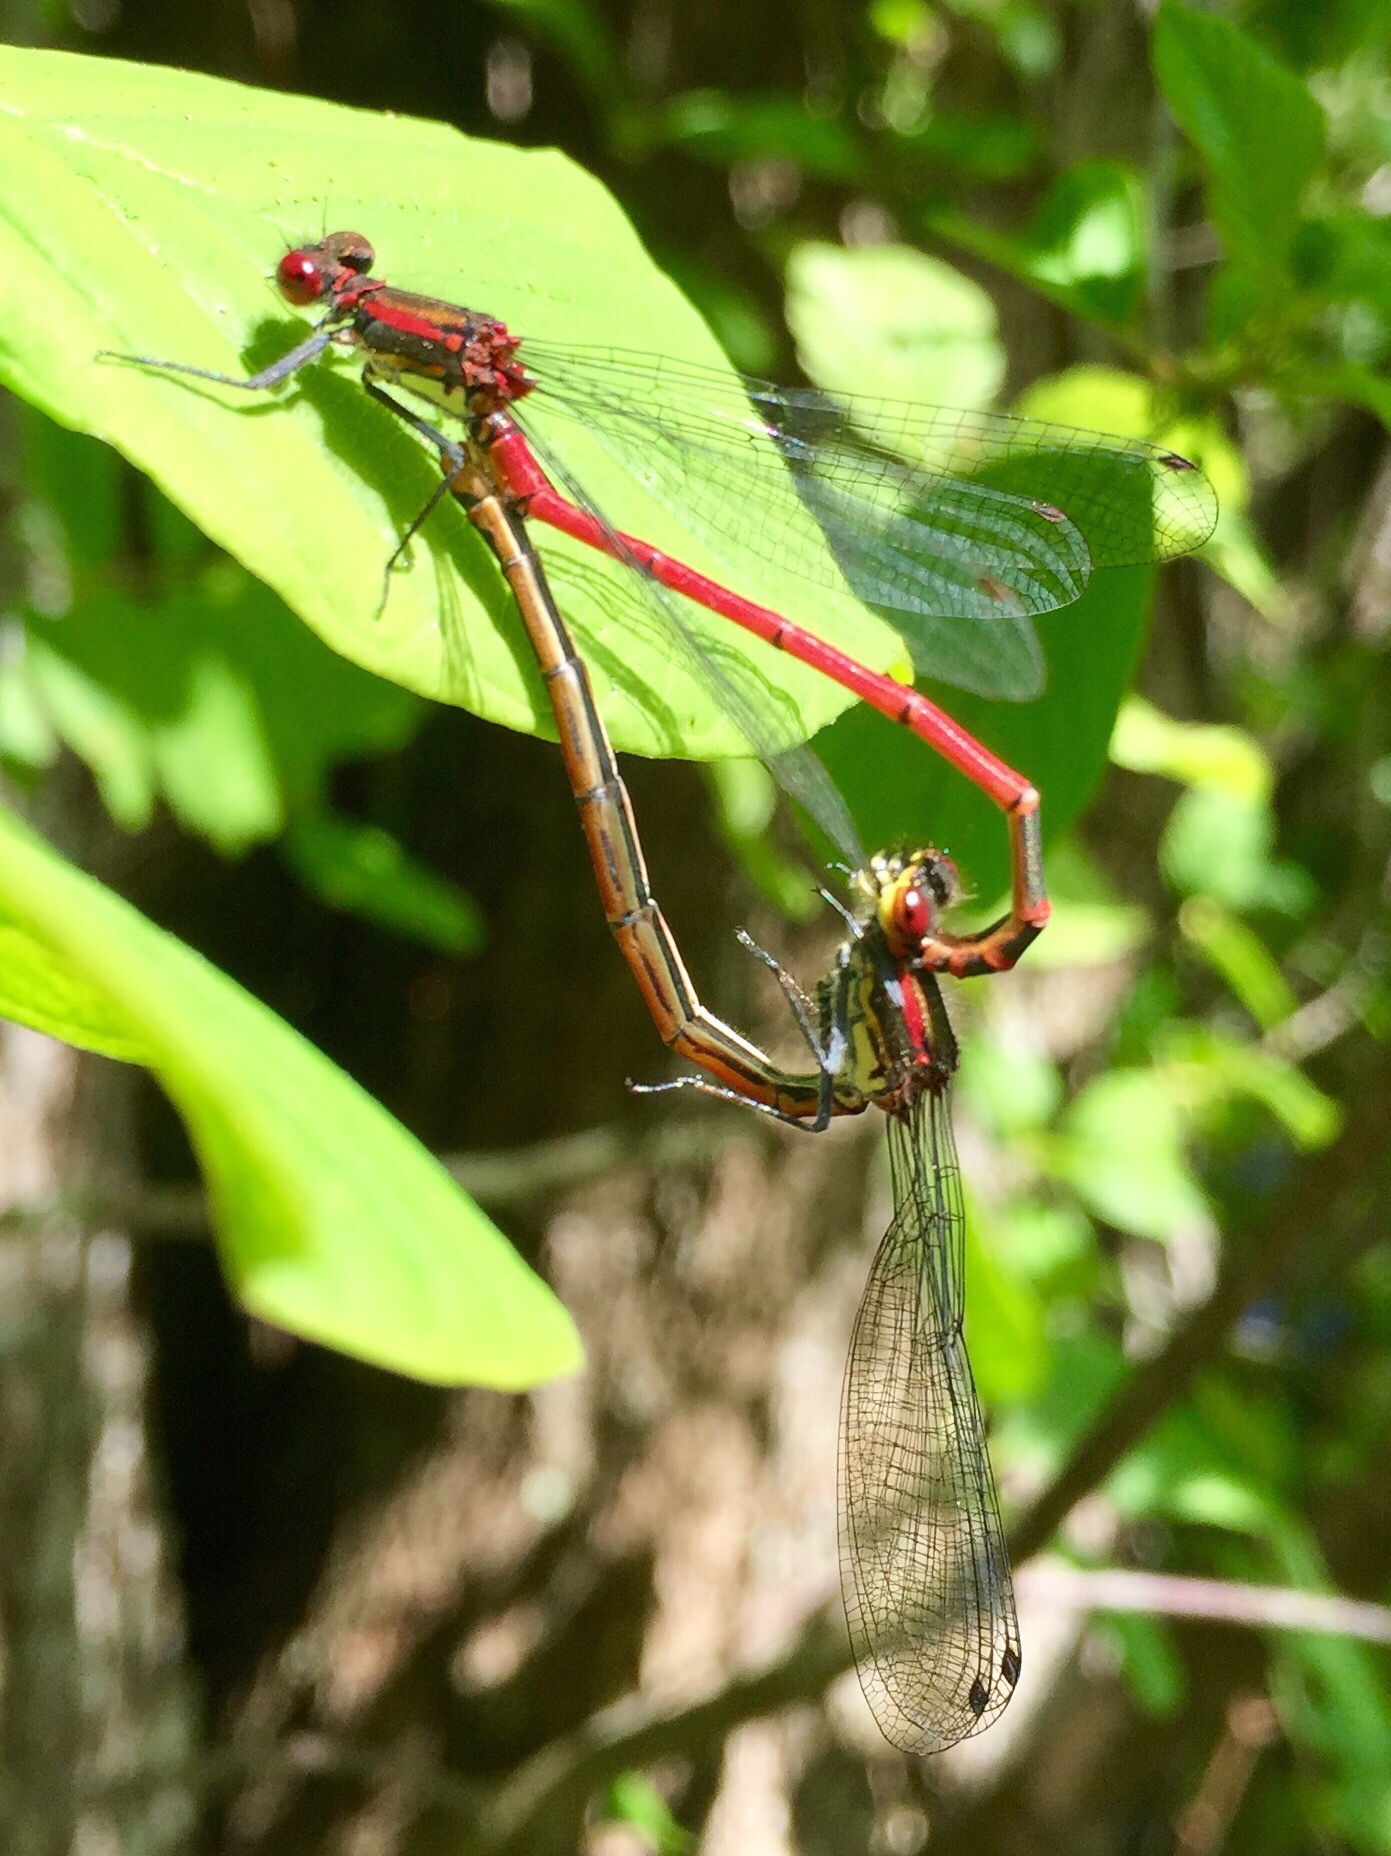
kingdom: Animalia
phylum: Arthropoda
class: Insecta
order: Odonata
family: Coenagrionidae
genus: Pyrrhosoma
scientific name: Pyrrhosoma nymphula
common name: Large red damsel
